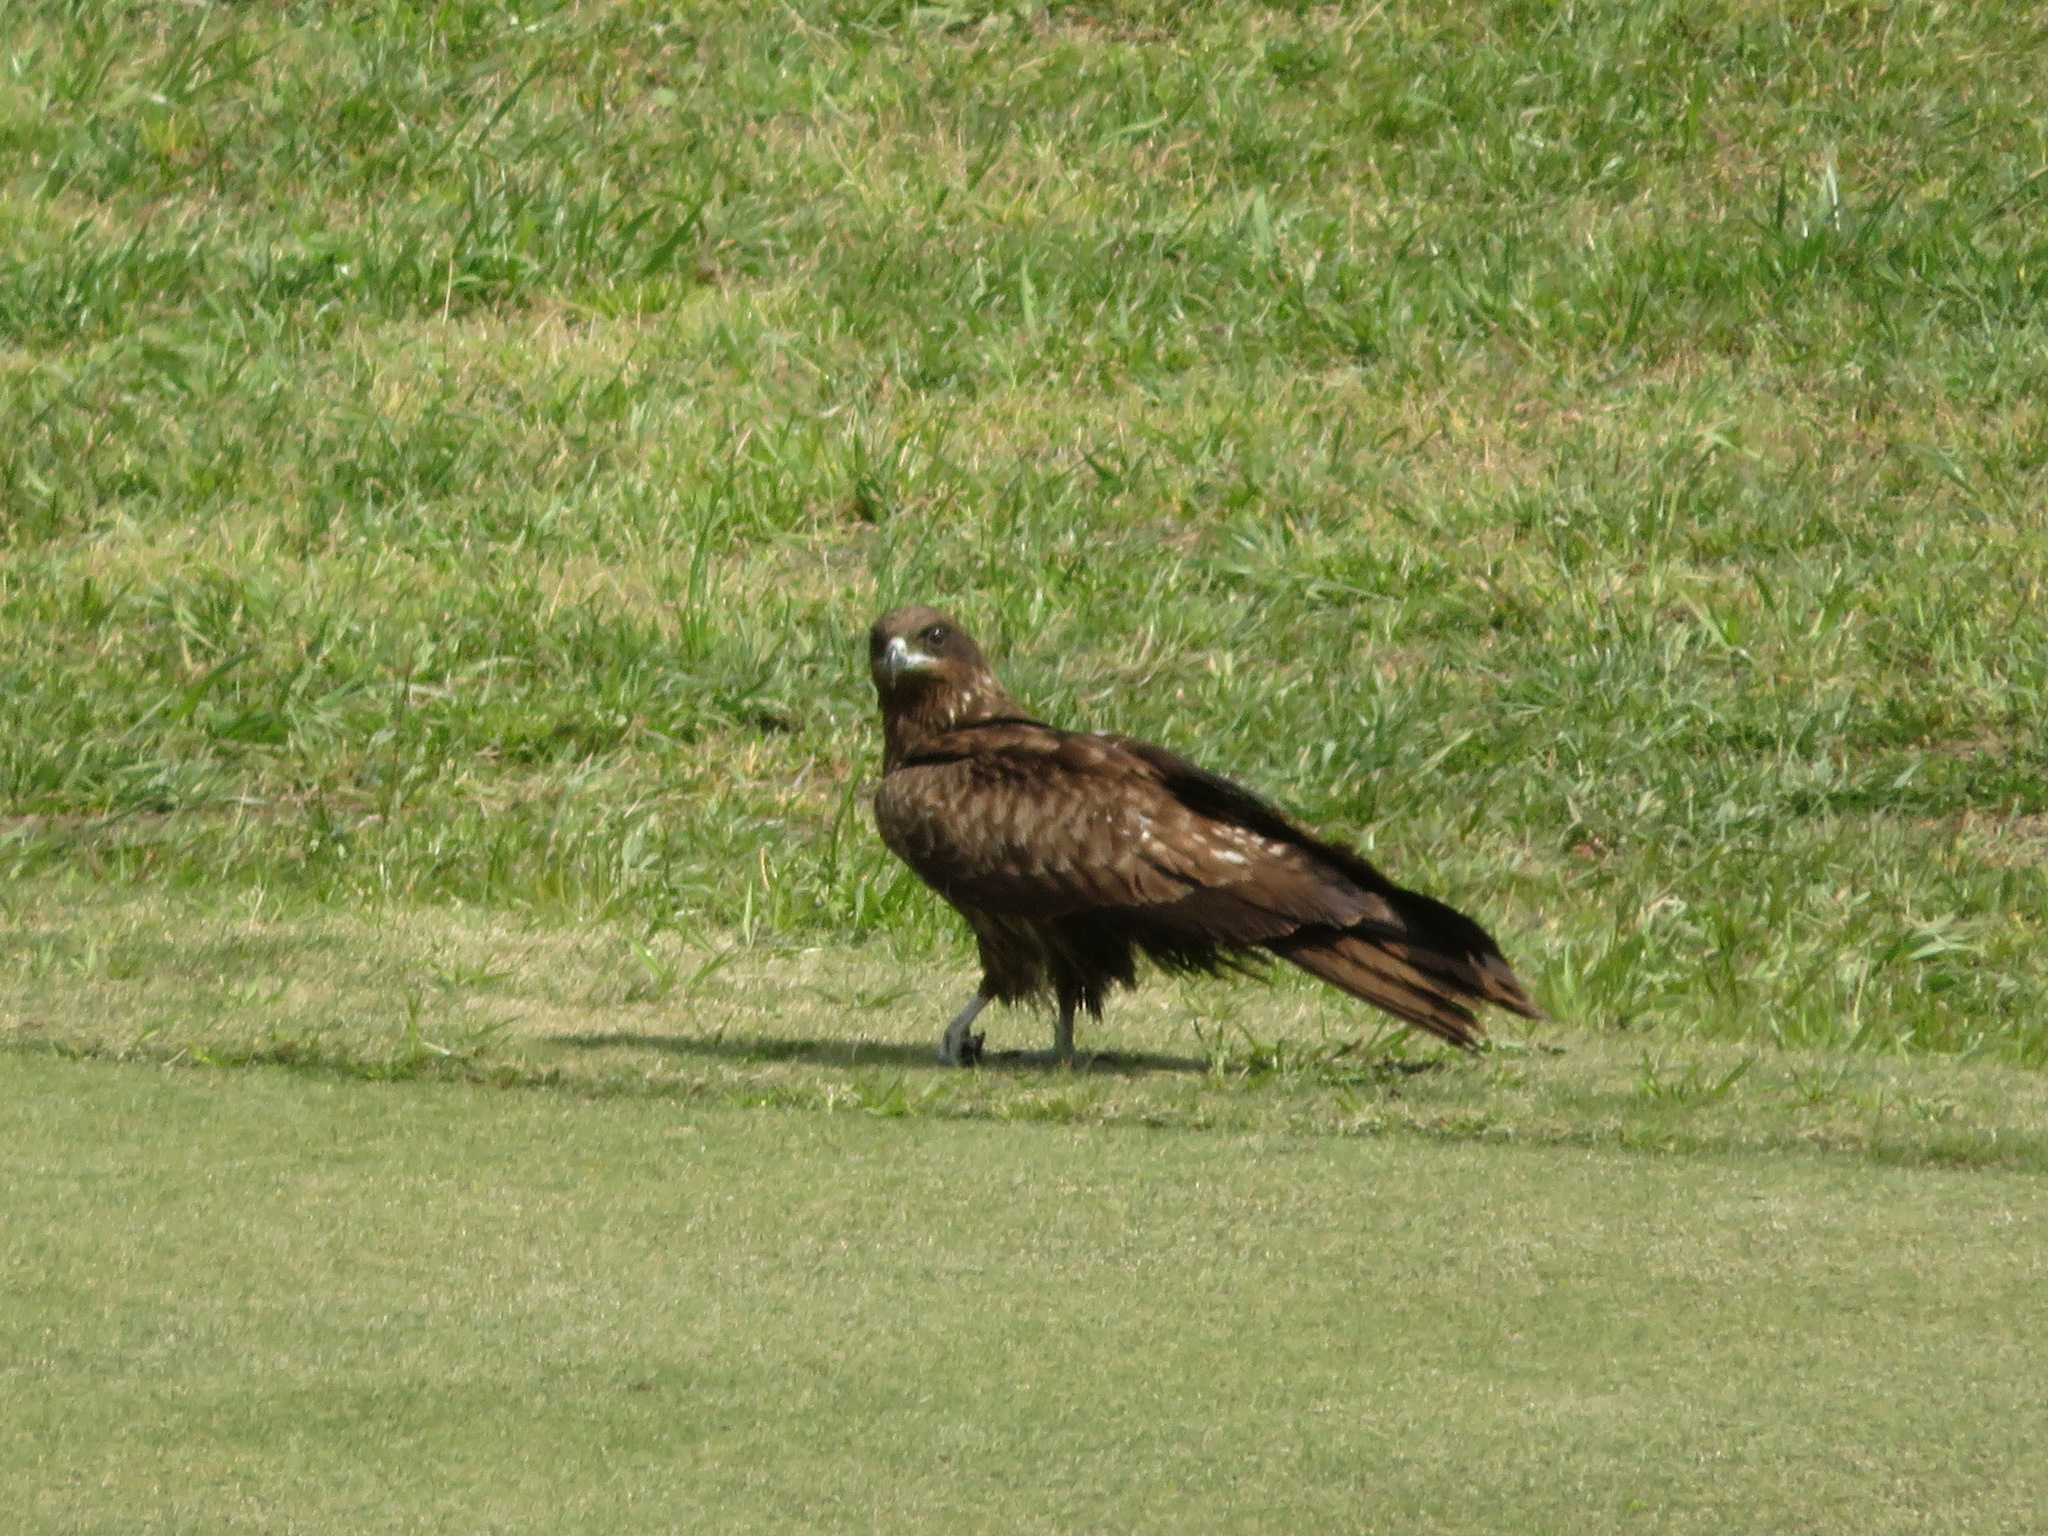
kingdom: Animalia
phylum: Chordata
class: Aves
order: Accipitriformes
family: Accipitridae
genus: Milvus
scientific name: Milvus migrans
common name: Black kite
